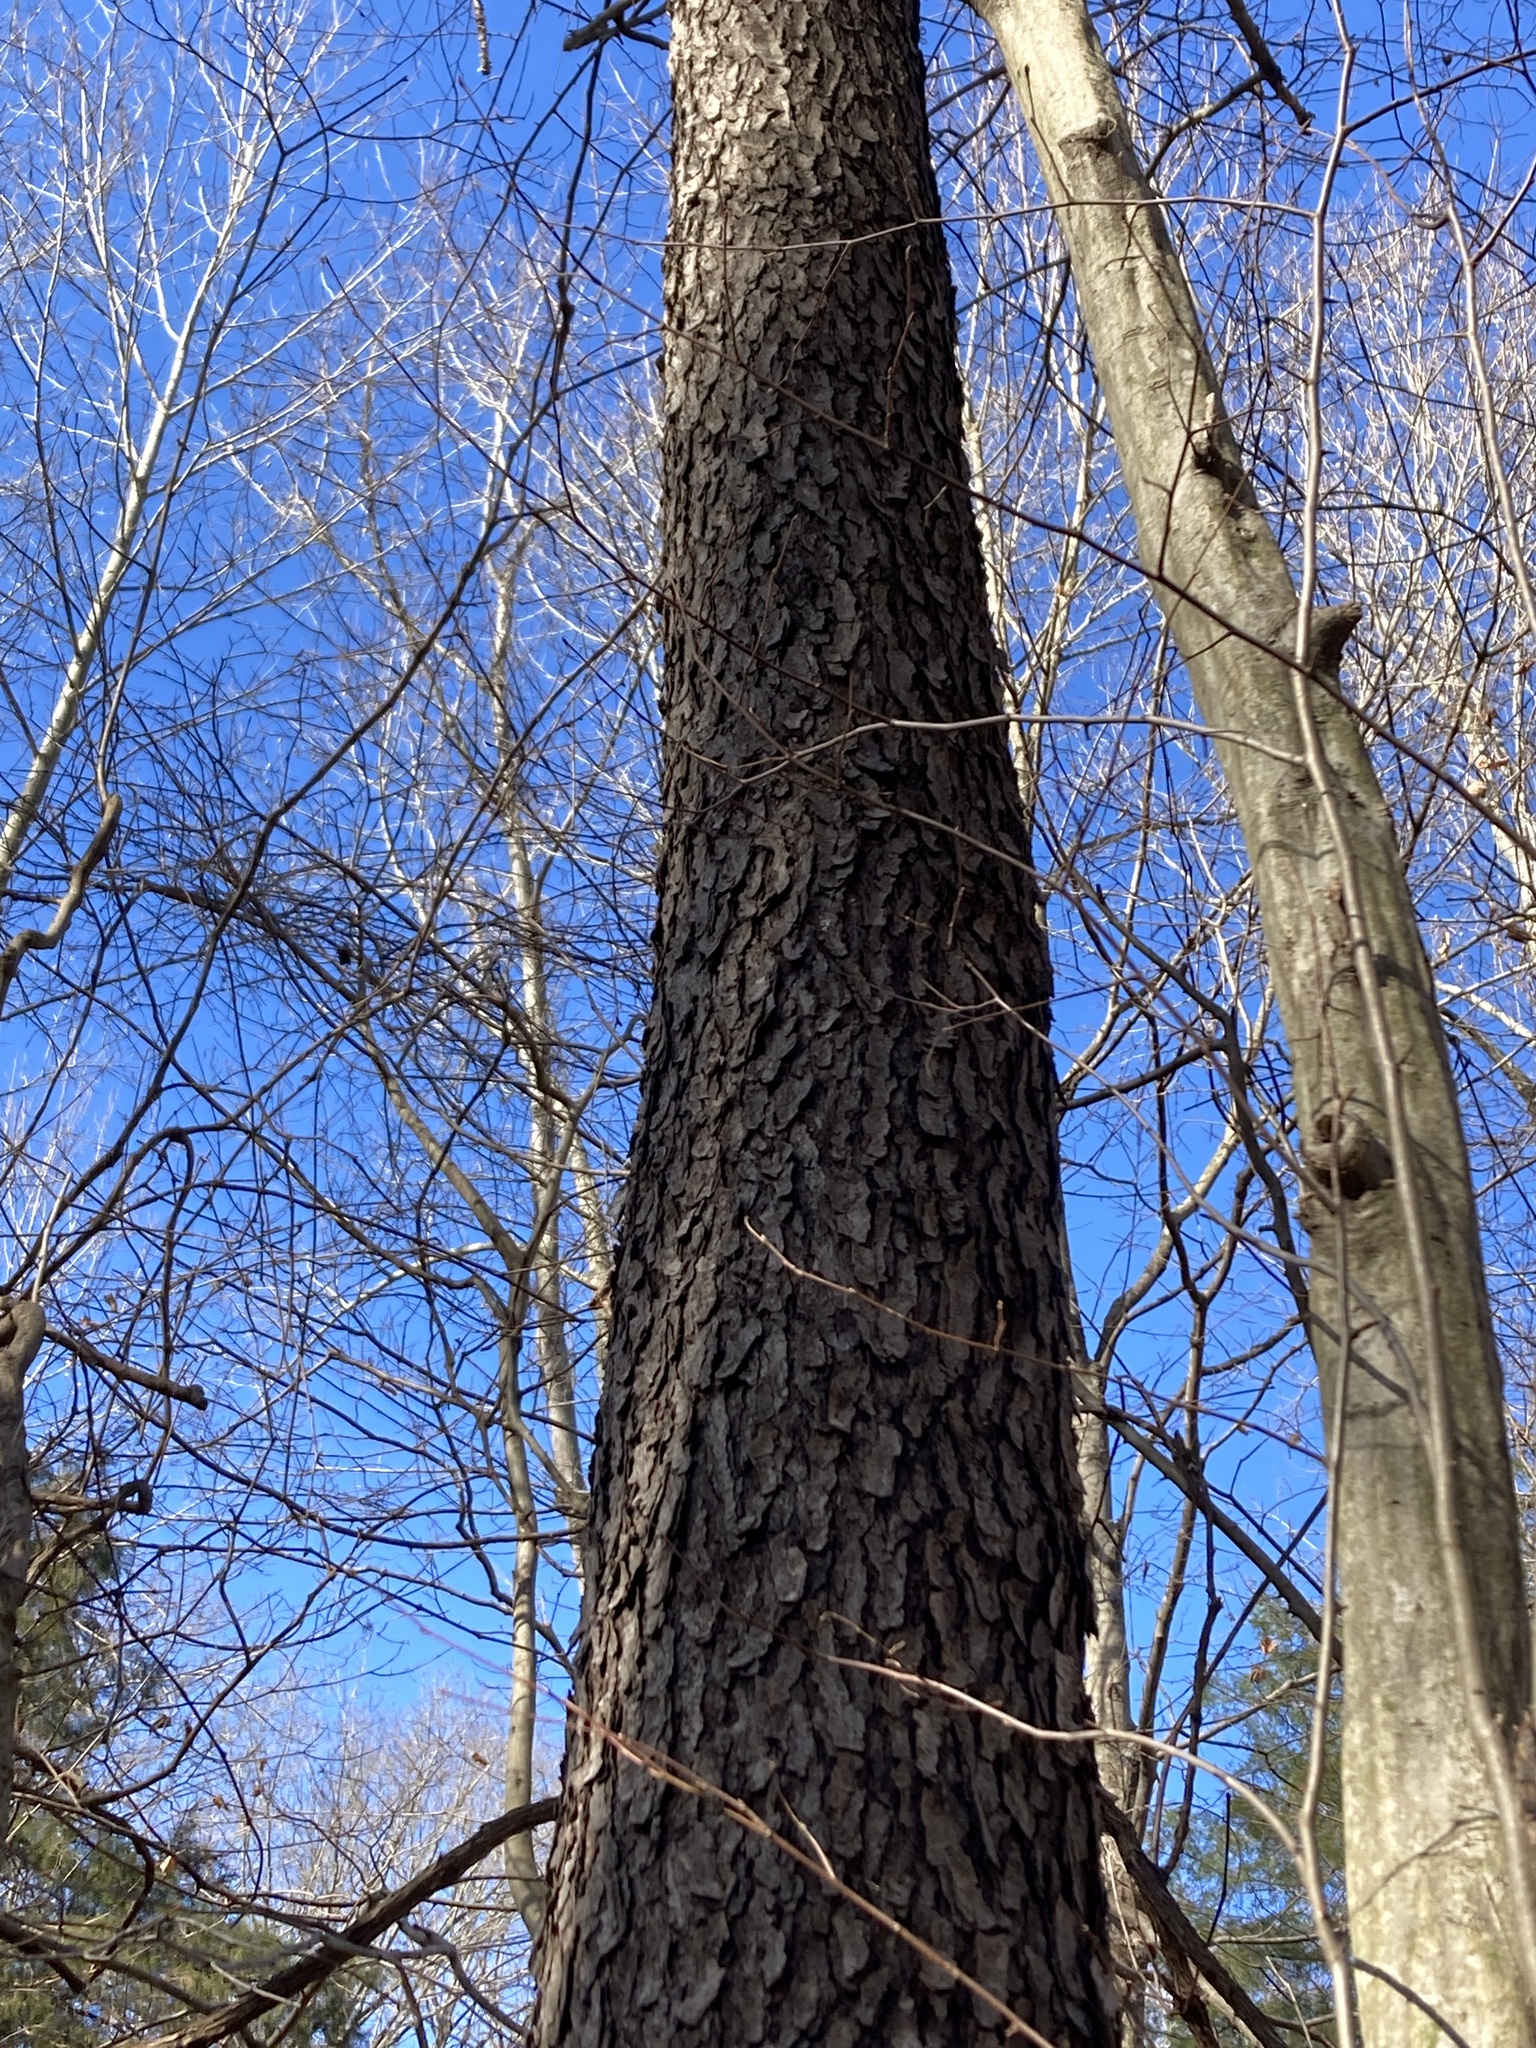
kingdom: Plantae
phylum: Tracheophyta
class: Magnoliopsida
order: Rosales
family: Rosaceae
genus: Prunus
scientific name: Prunus serotina
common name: Black cherry
